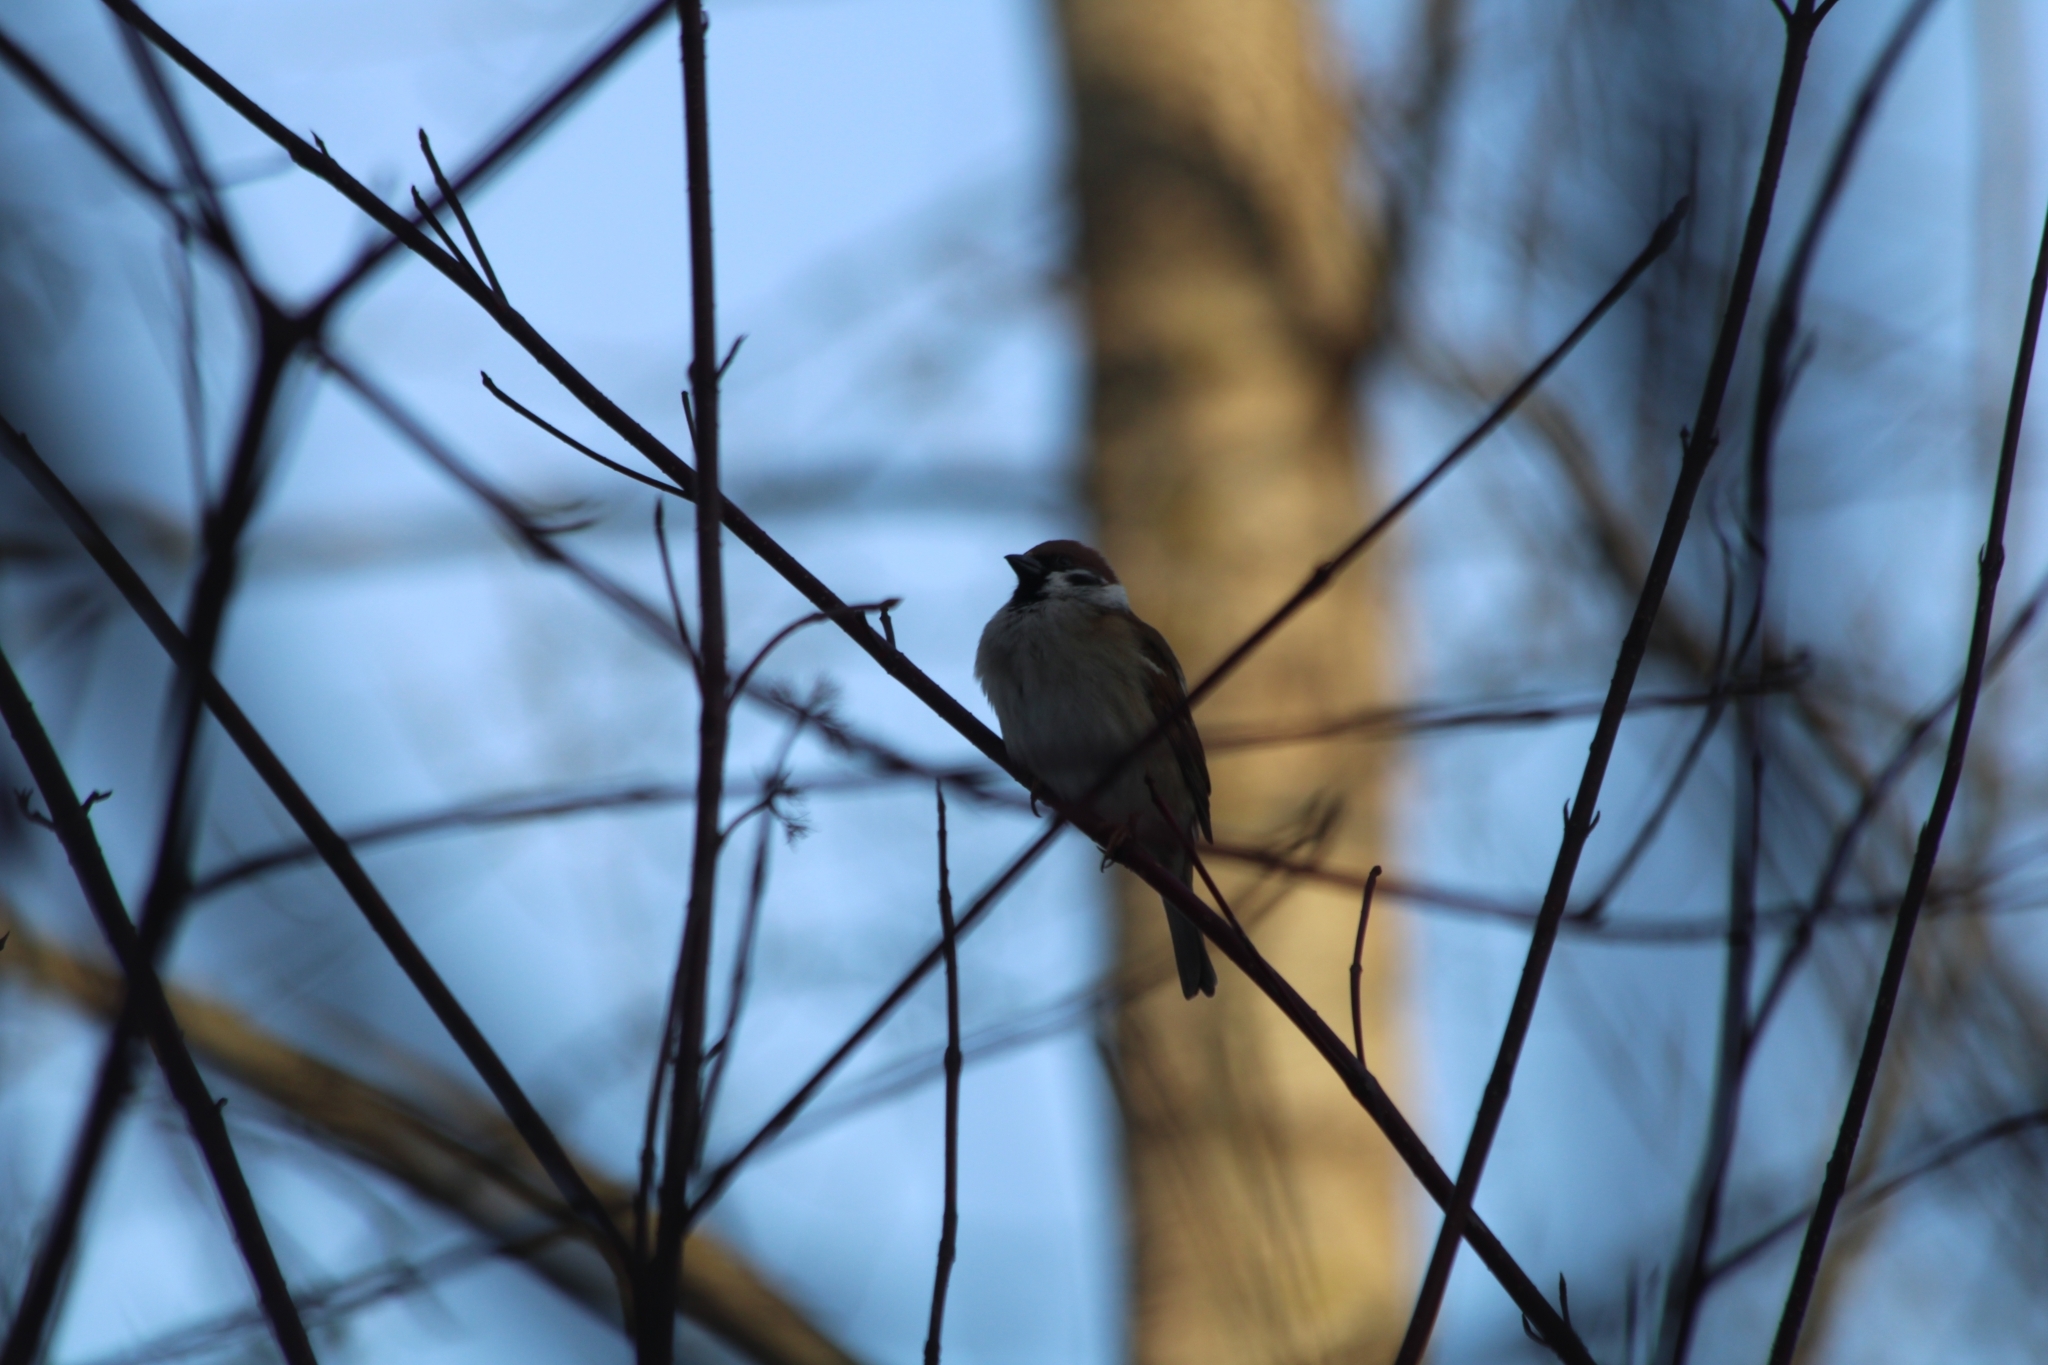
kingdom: Animalia
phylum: Chordata
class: Aves
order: Passeriformes
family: Passeridae
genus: Passer
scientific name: Passer montanus
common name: Eurasian tree sparrow
